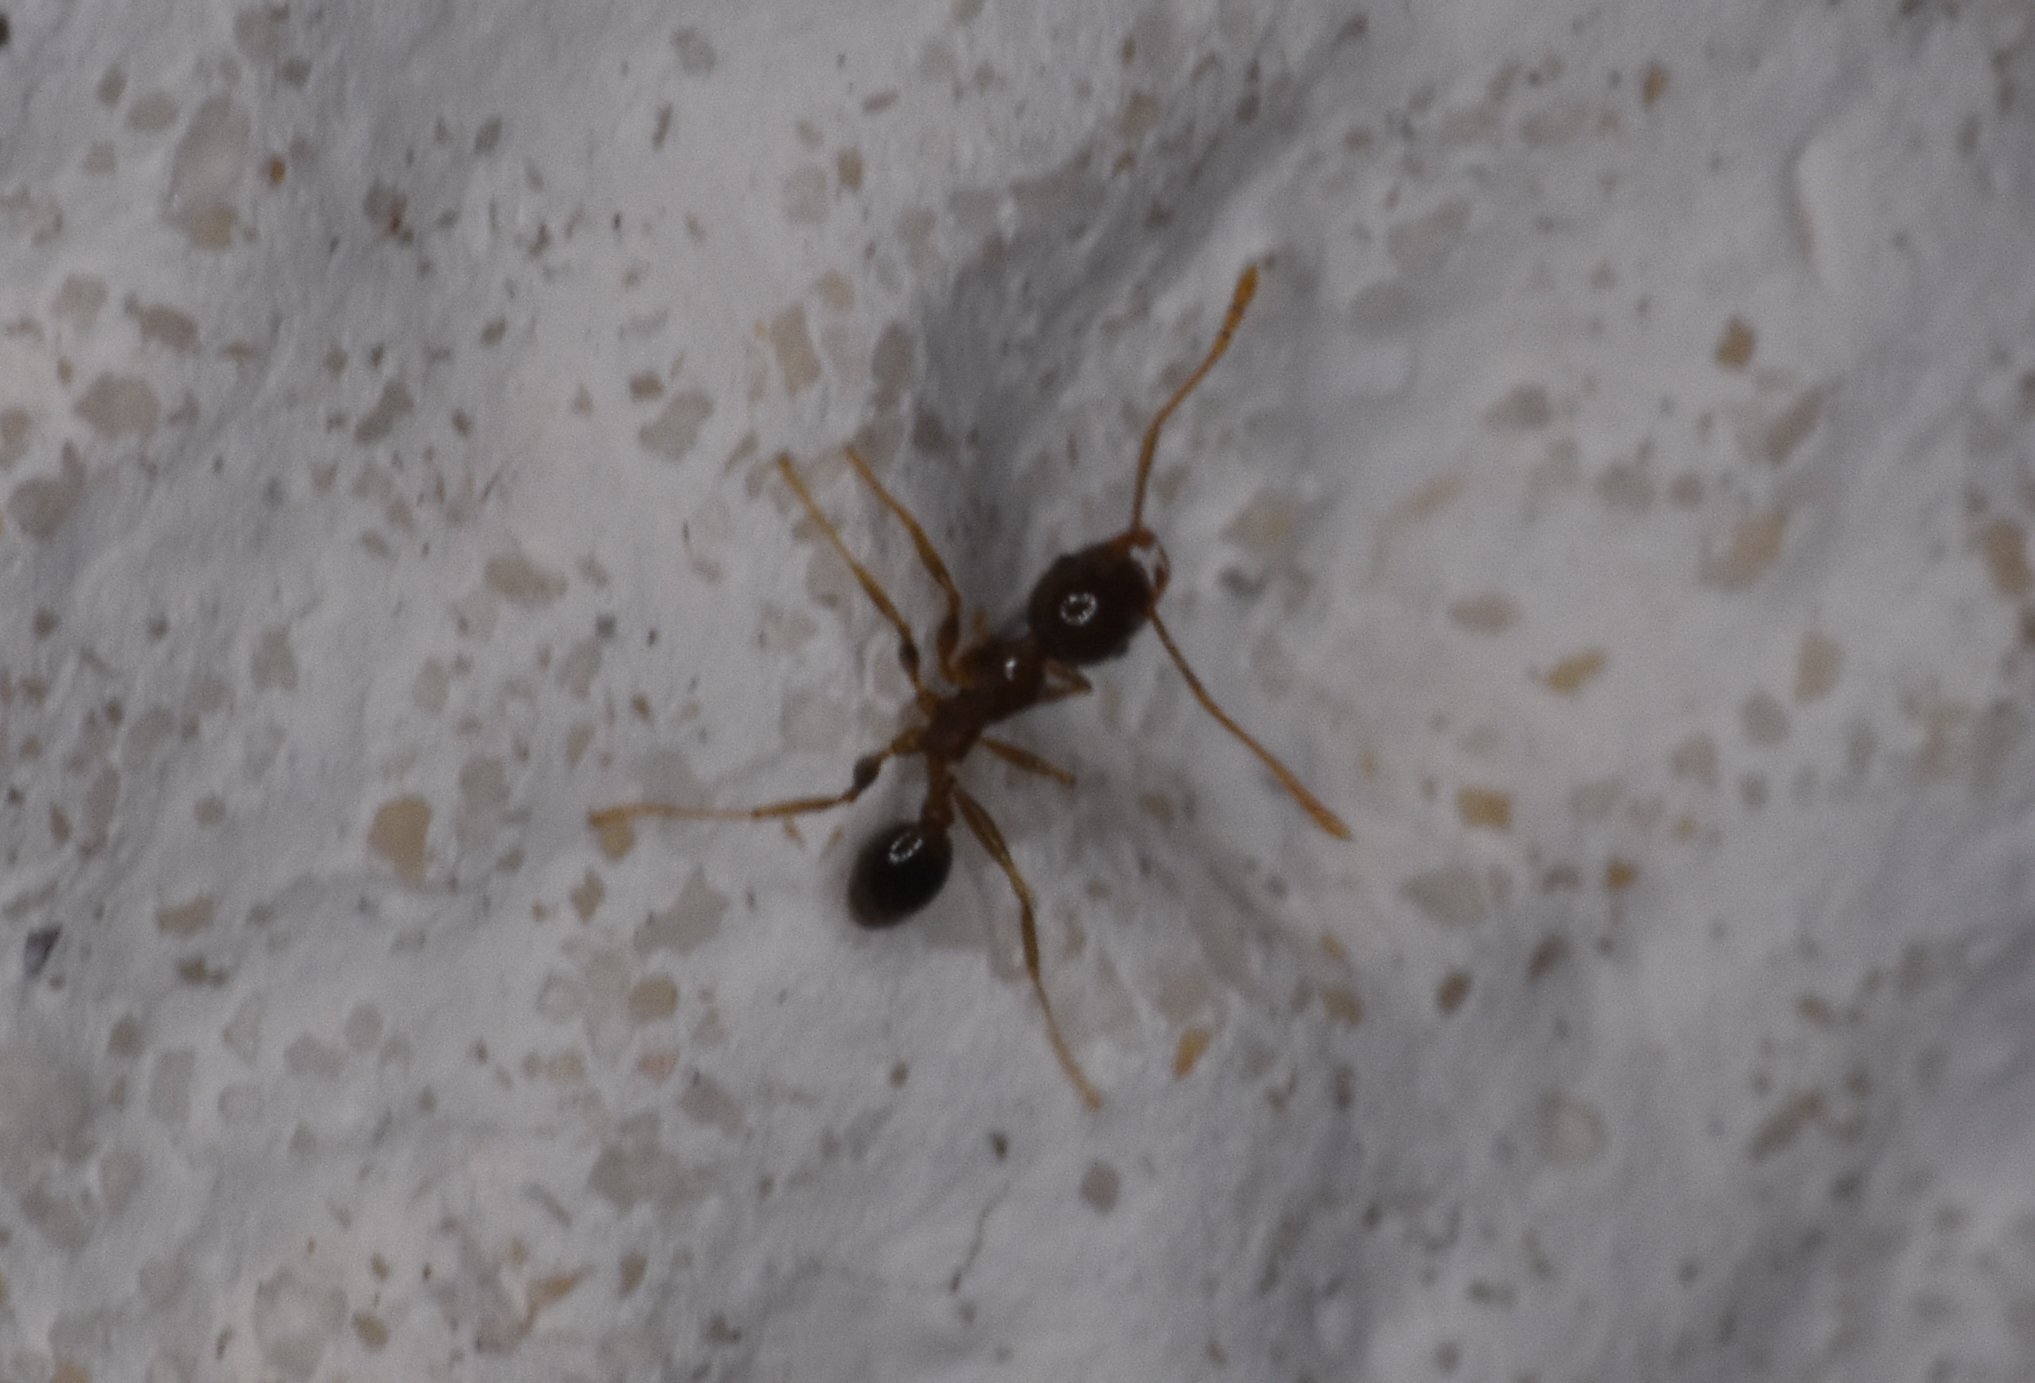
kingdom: Animalia
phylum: Arthropoda
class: Insecta
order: Hymenoptera
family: Formicidae
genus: Pheidole
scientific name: Pheidole megacephala
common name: Bigheaded ant
